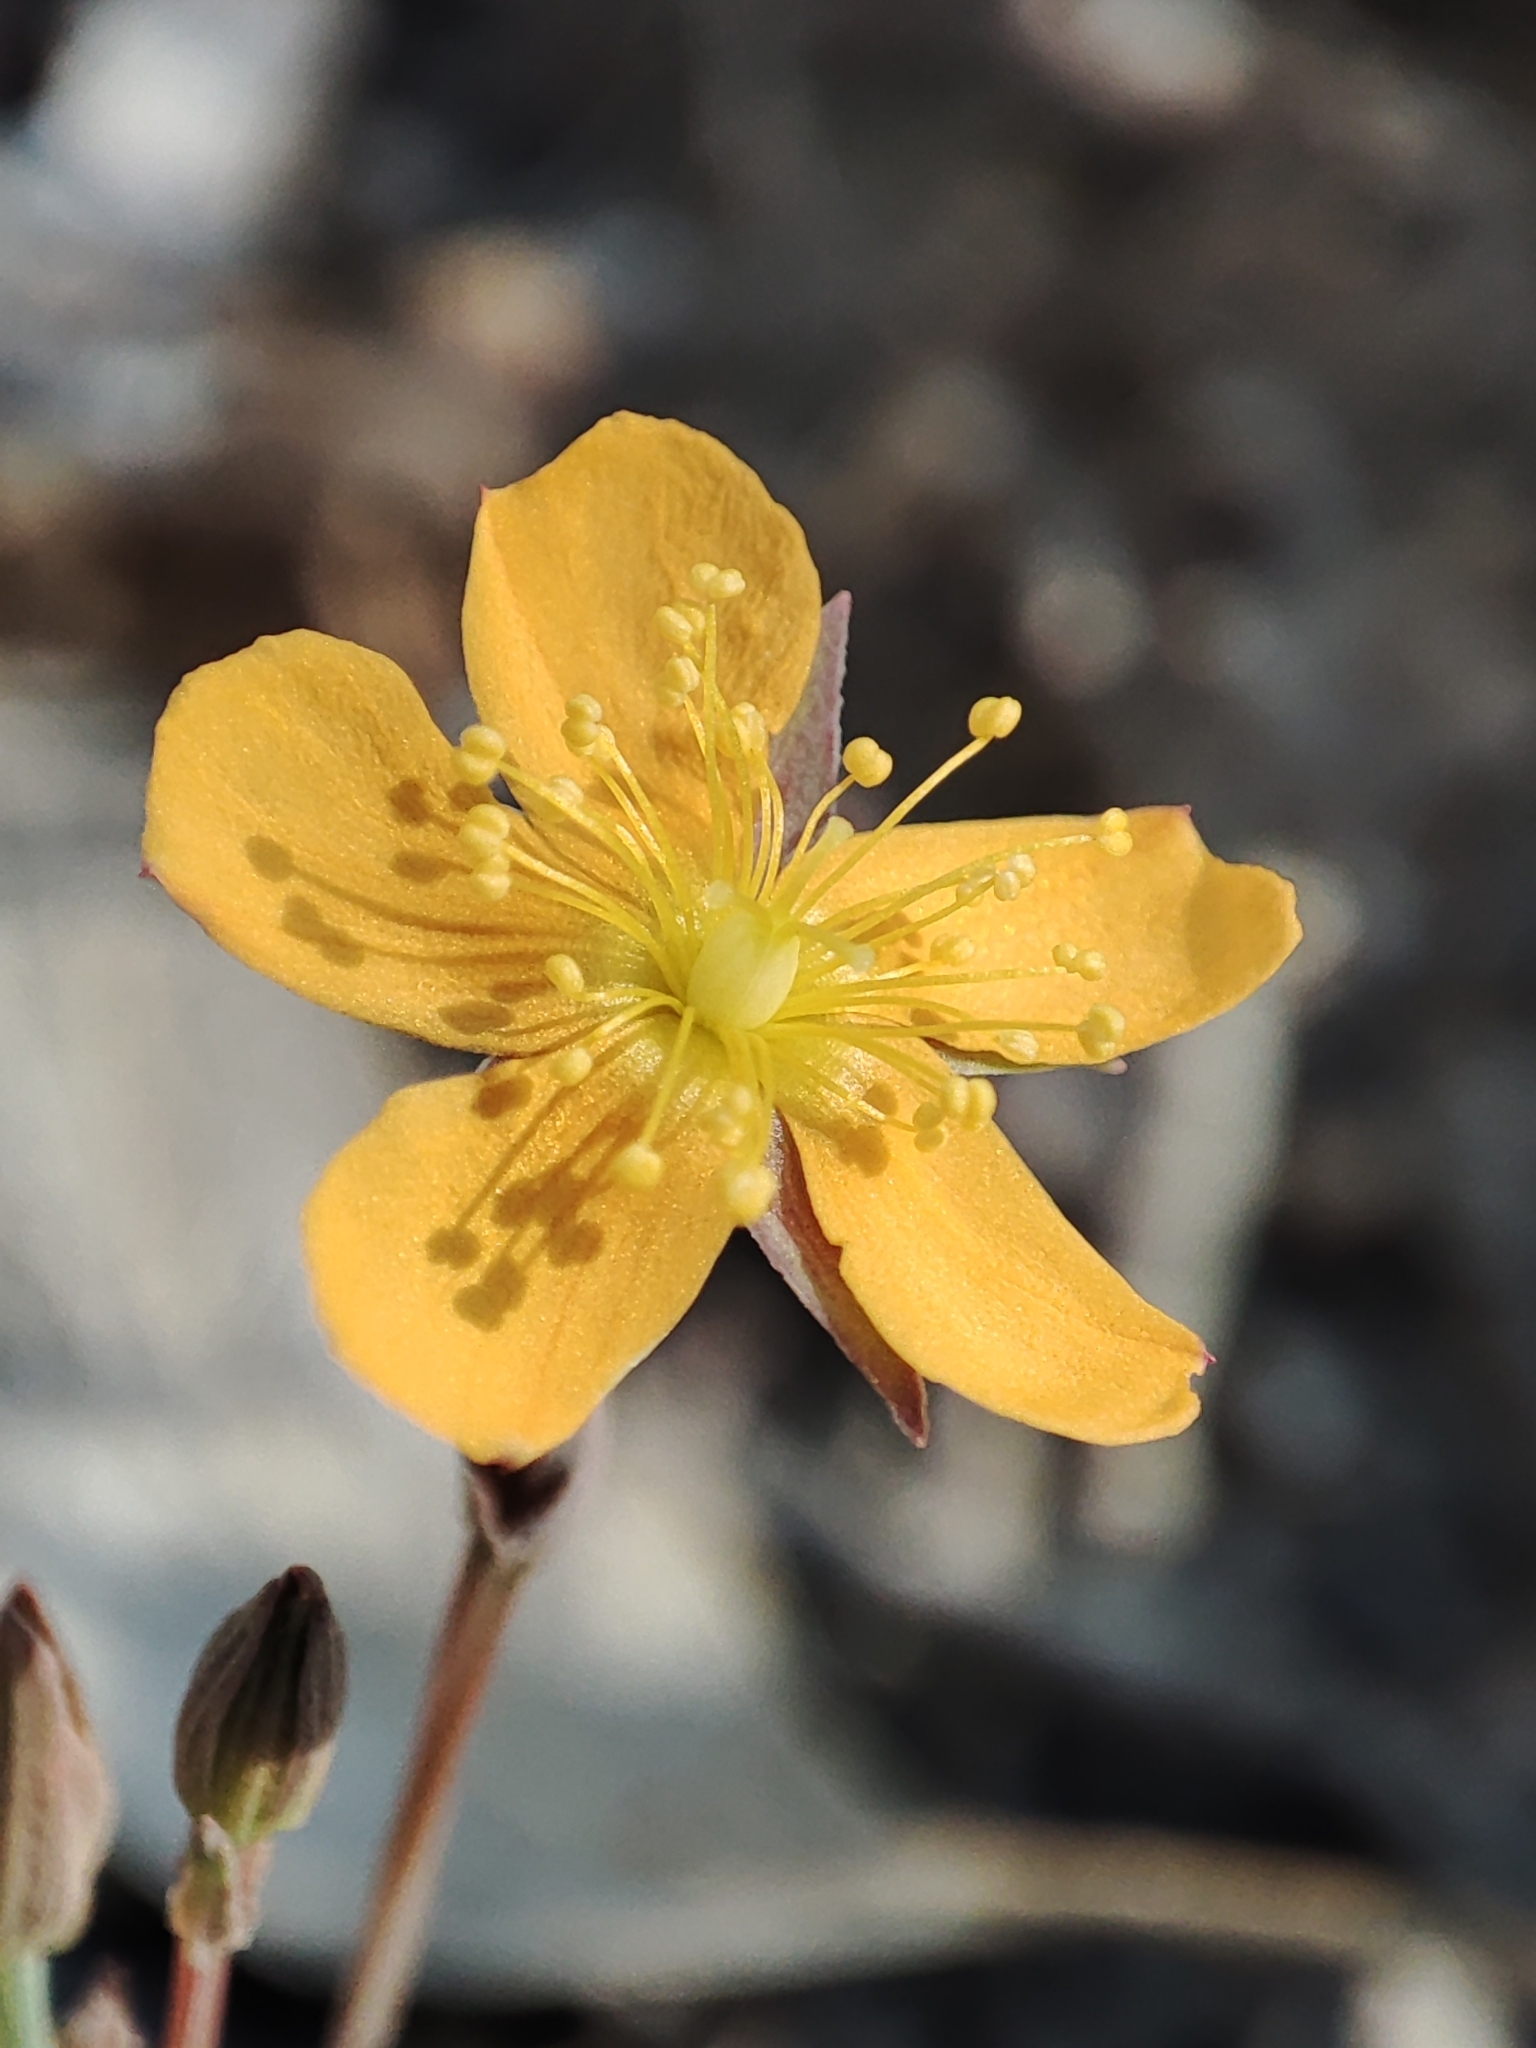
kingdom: Plantae
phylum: Tracheophyta
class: Magnoliopsida
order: Malpighiales
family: Hypericaceae
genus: Hypericum
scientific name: Hypericum gramineum
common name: Grassy st. johnswort
